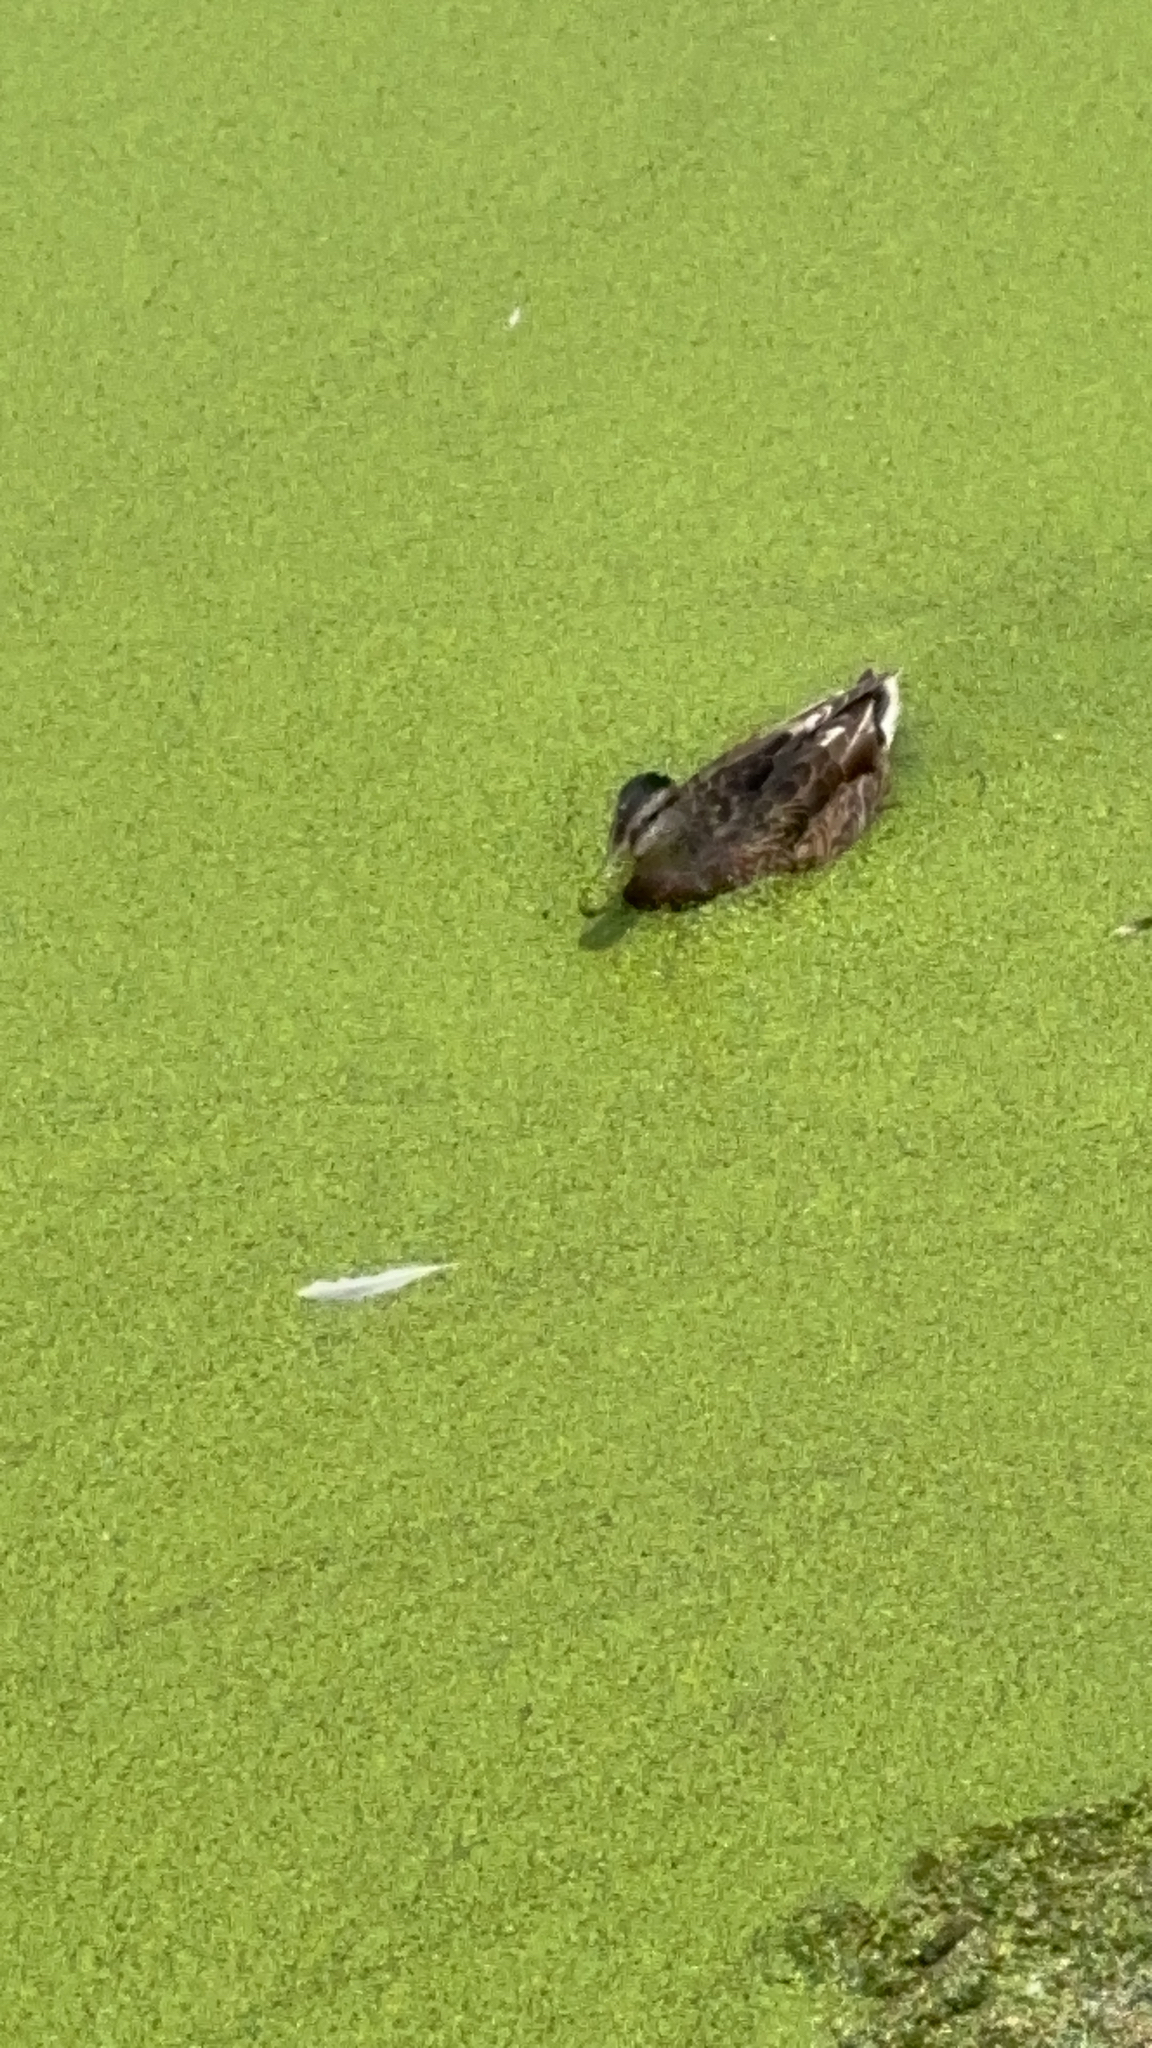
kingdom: Animalia
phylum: Chordata
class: Aves
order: Anseriformes
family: Anatidae
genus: Anas
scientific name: Anas platyrhynchos
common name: Mallard
